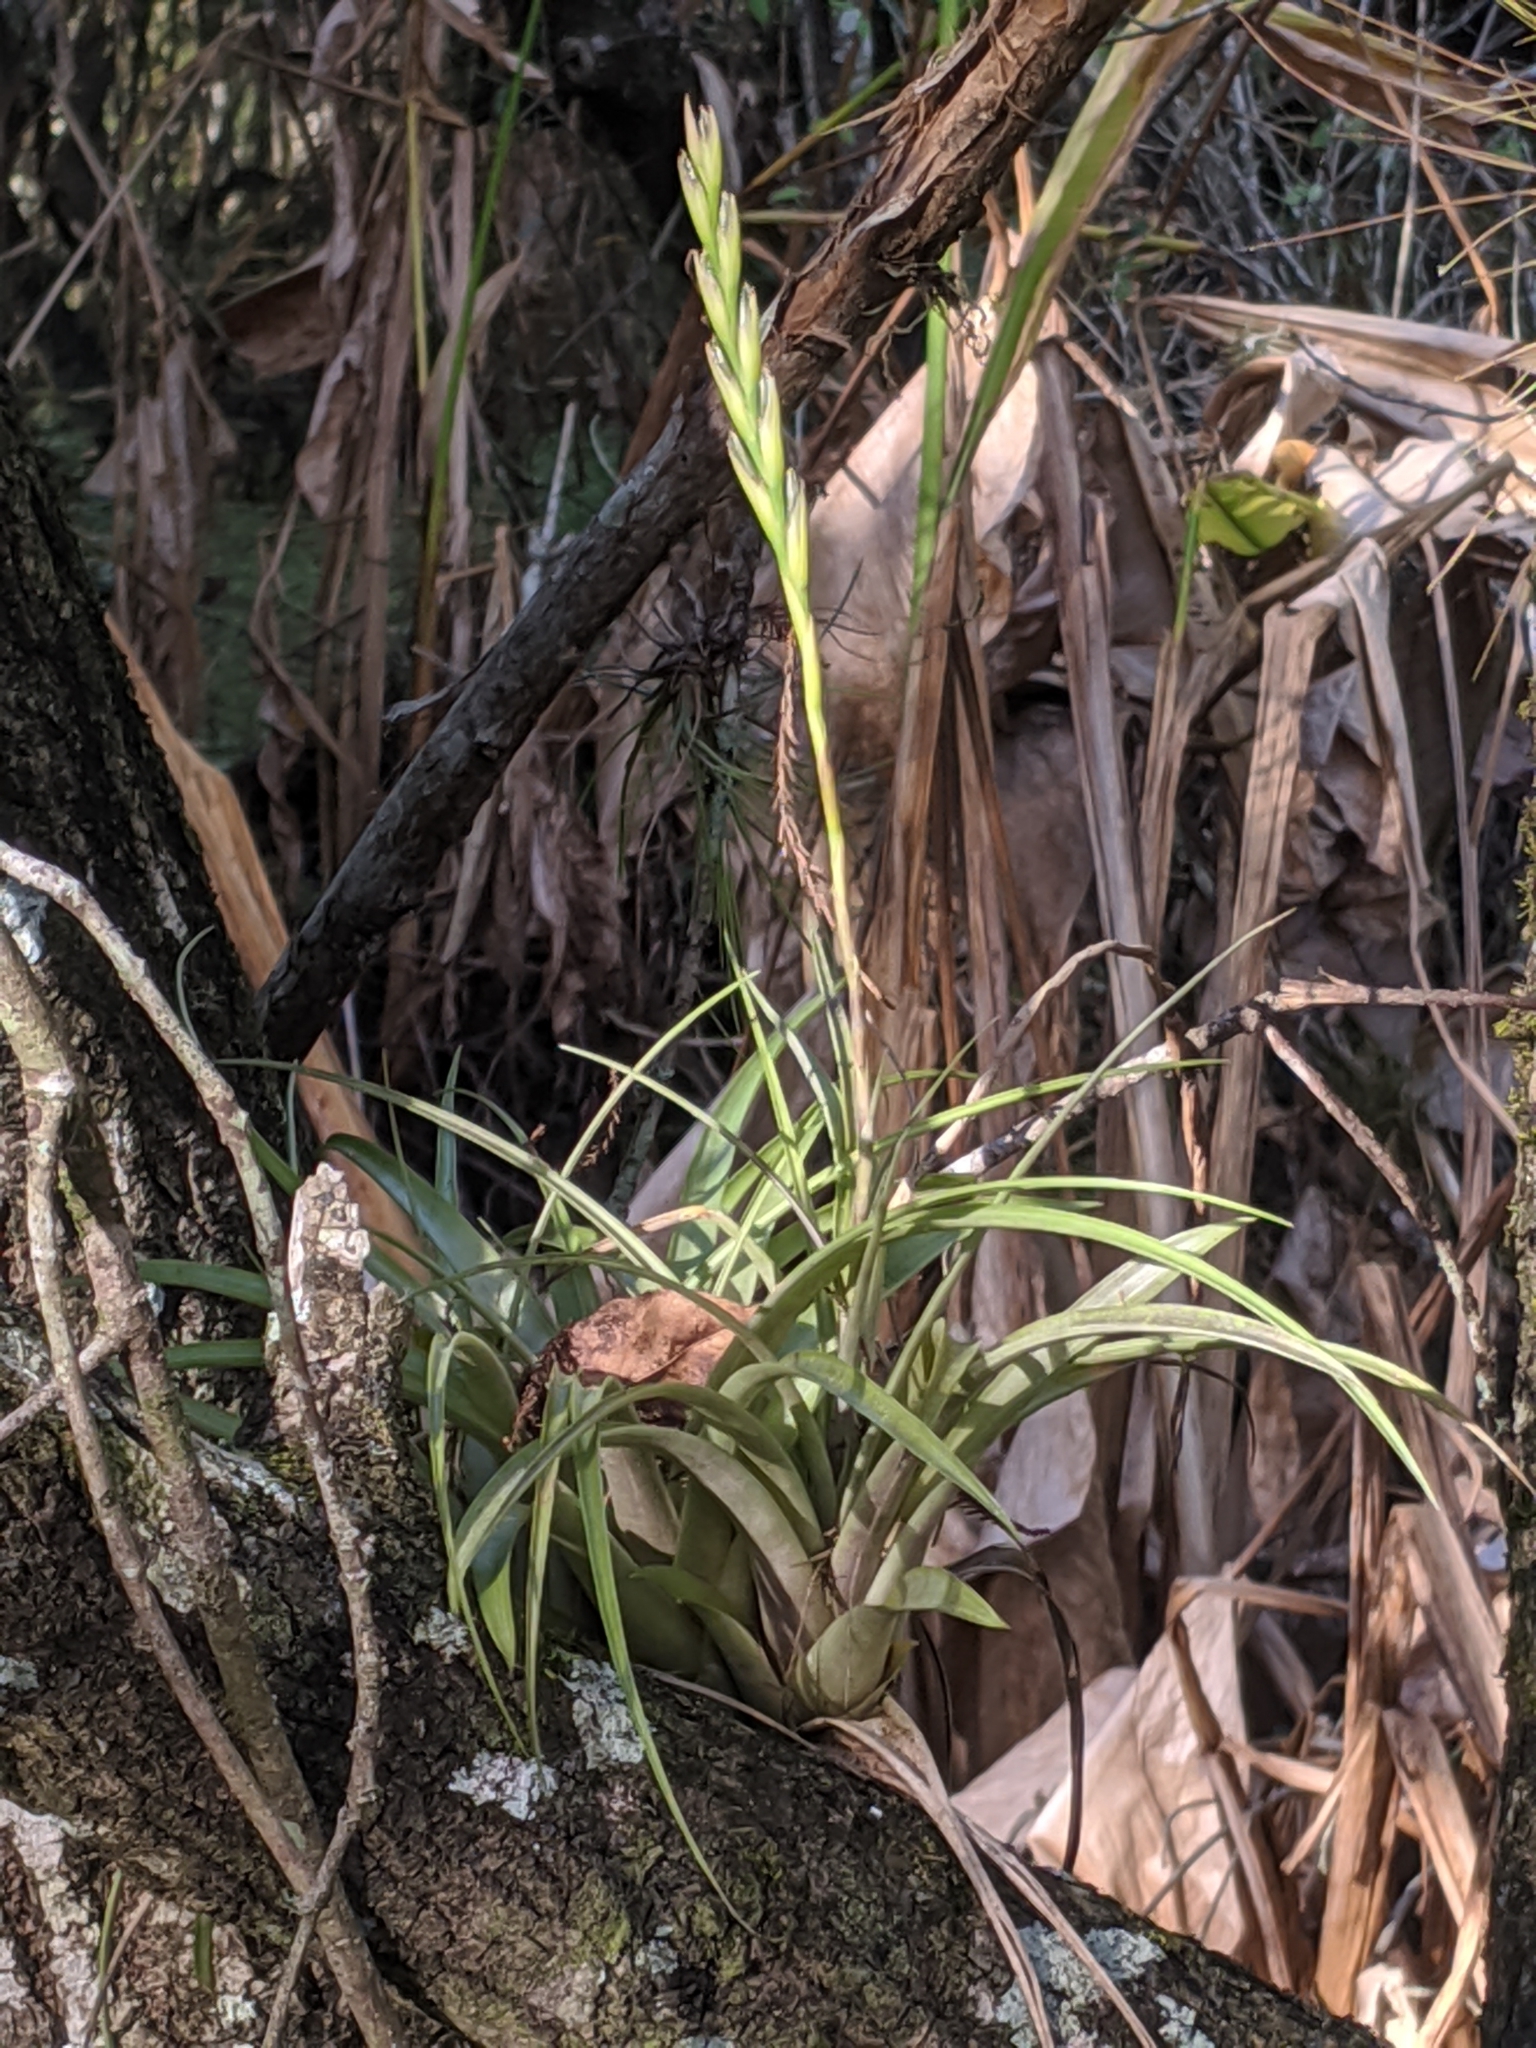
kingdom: Plantae
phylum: Tracheophyta
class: Liliopsida
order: Poales
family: Bromeliaceae
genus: Tillandsia
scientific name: Tillandsia variabilis
